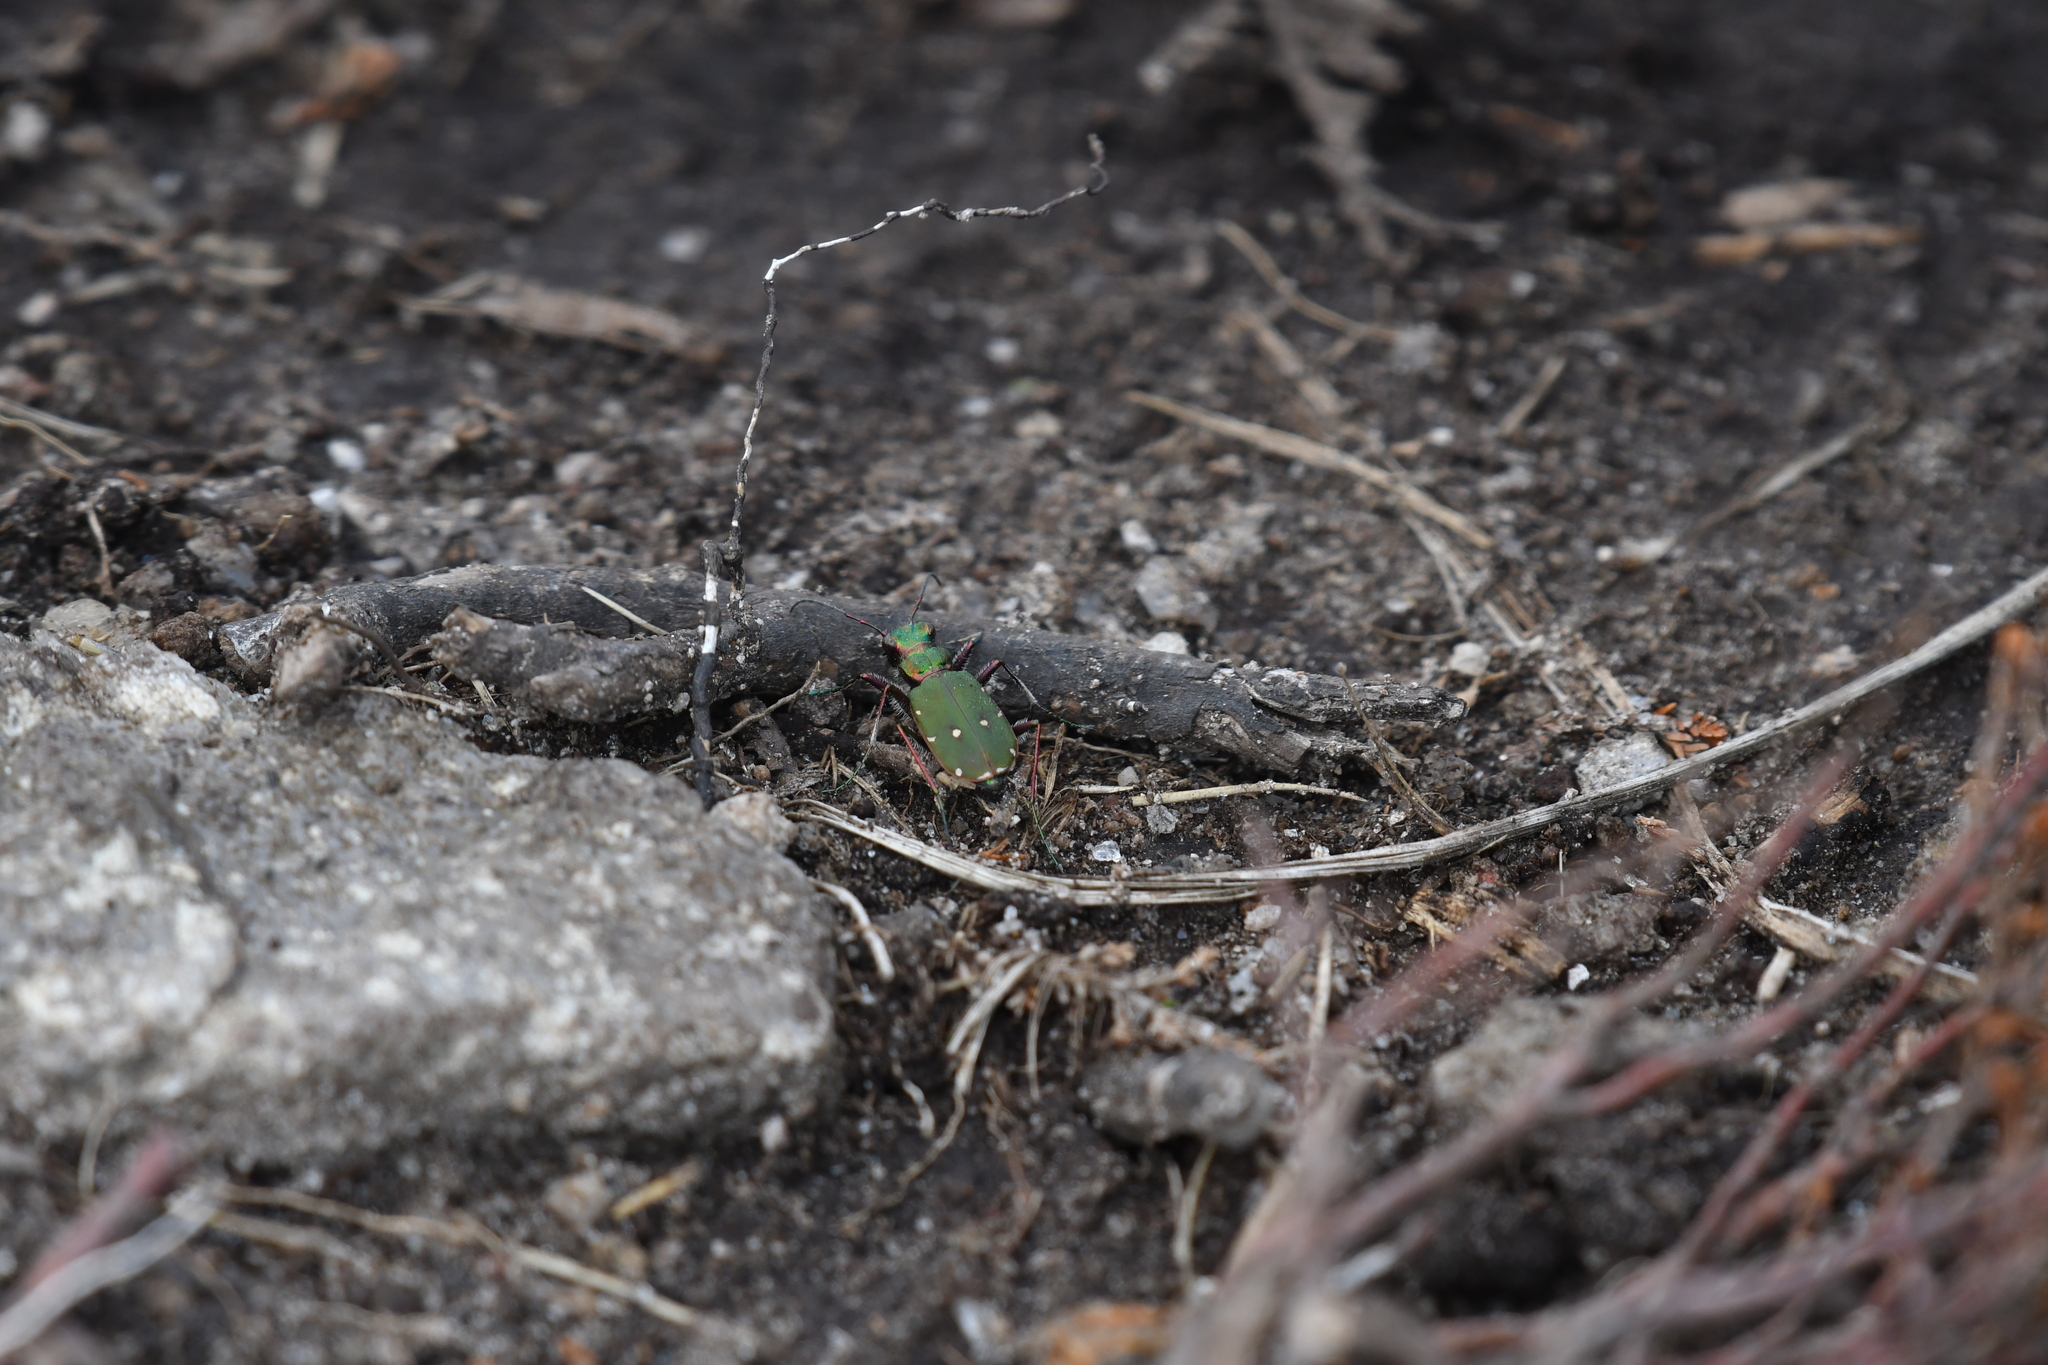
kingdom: Animalia
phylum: Arthropoda
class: Insecta
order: Coleoptera
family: Carabidae
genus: Cicindela
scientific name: Cicindela campestris
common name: Common tiger beetle
